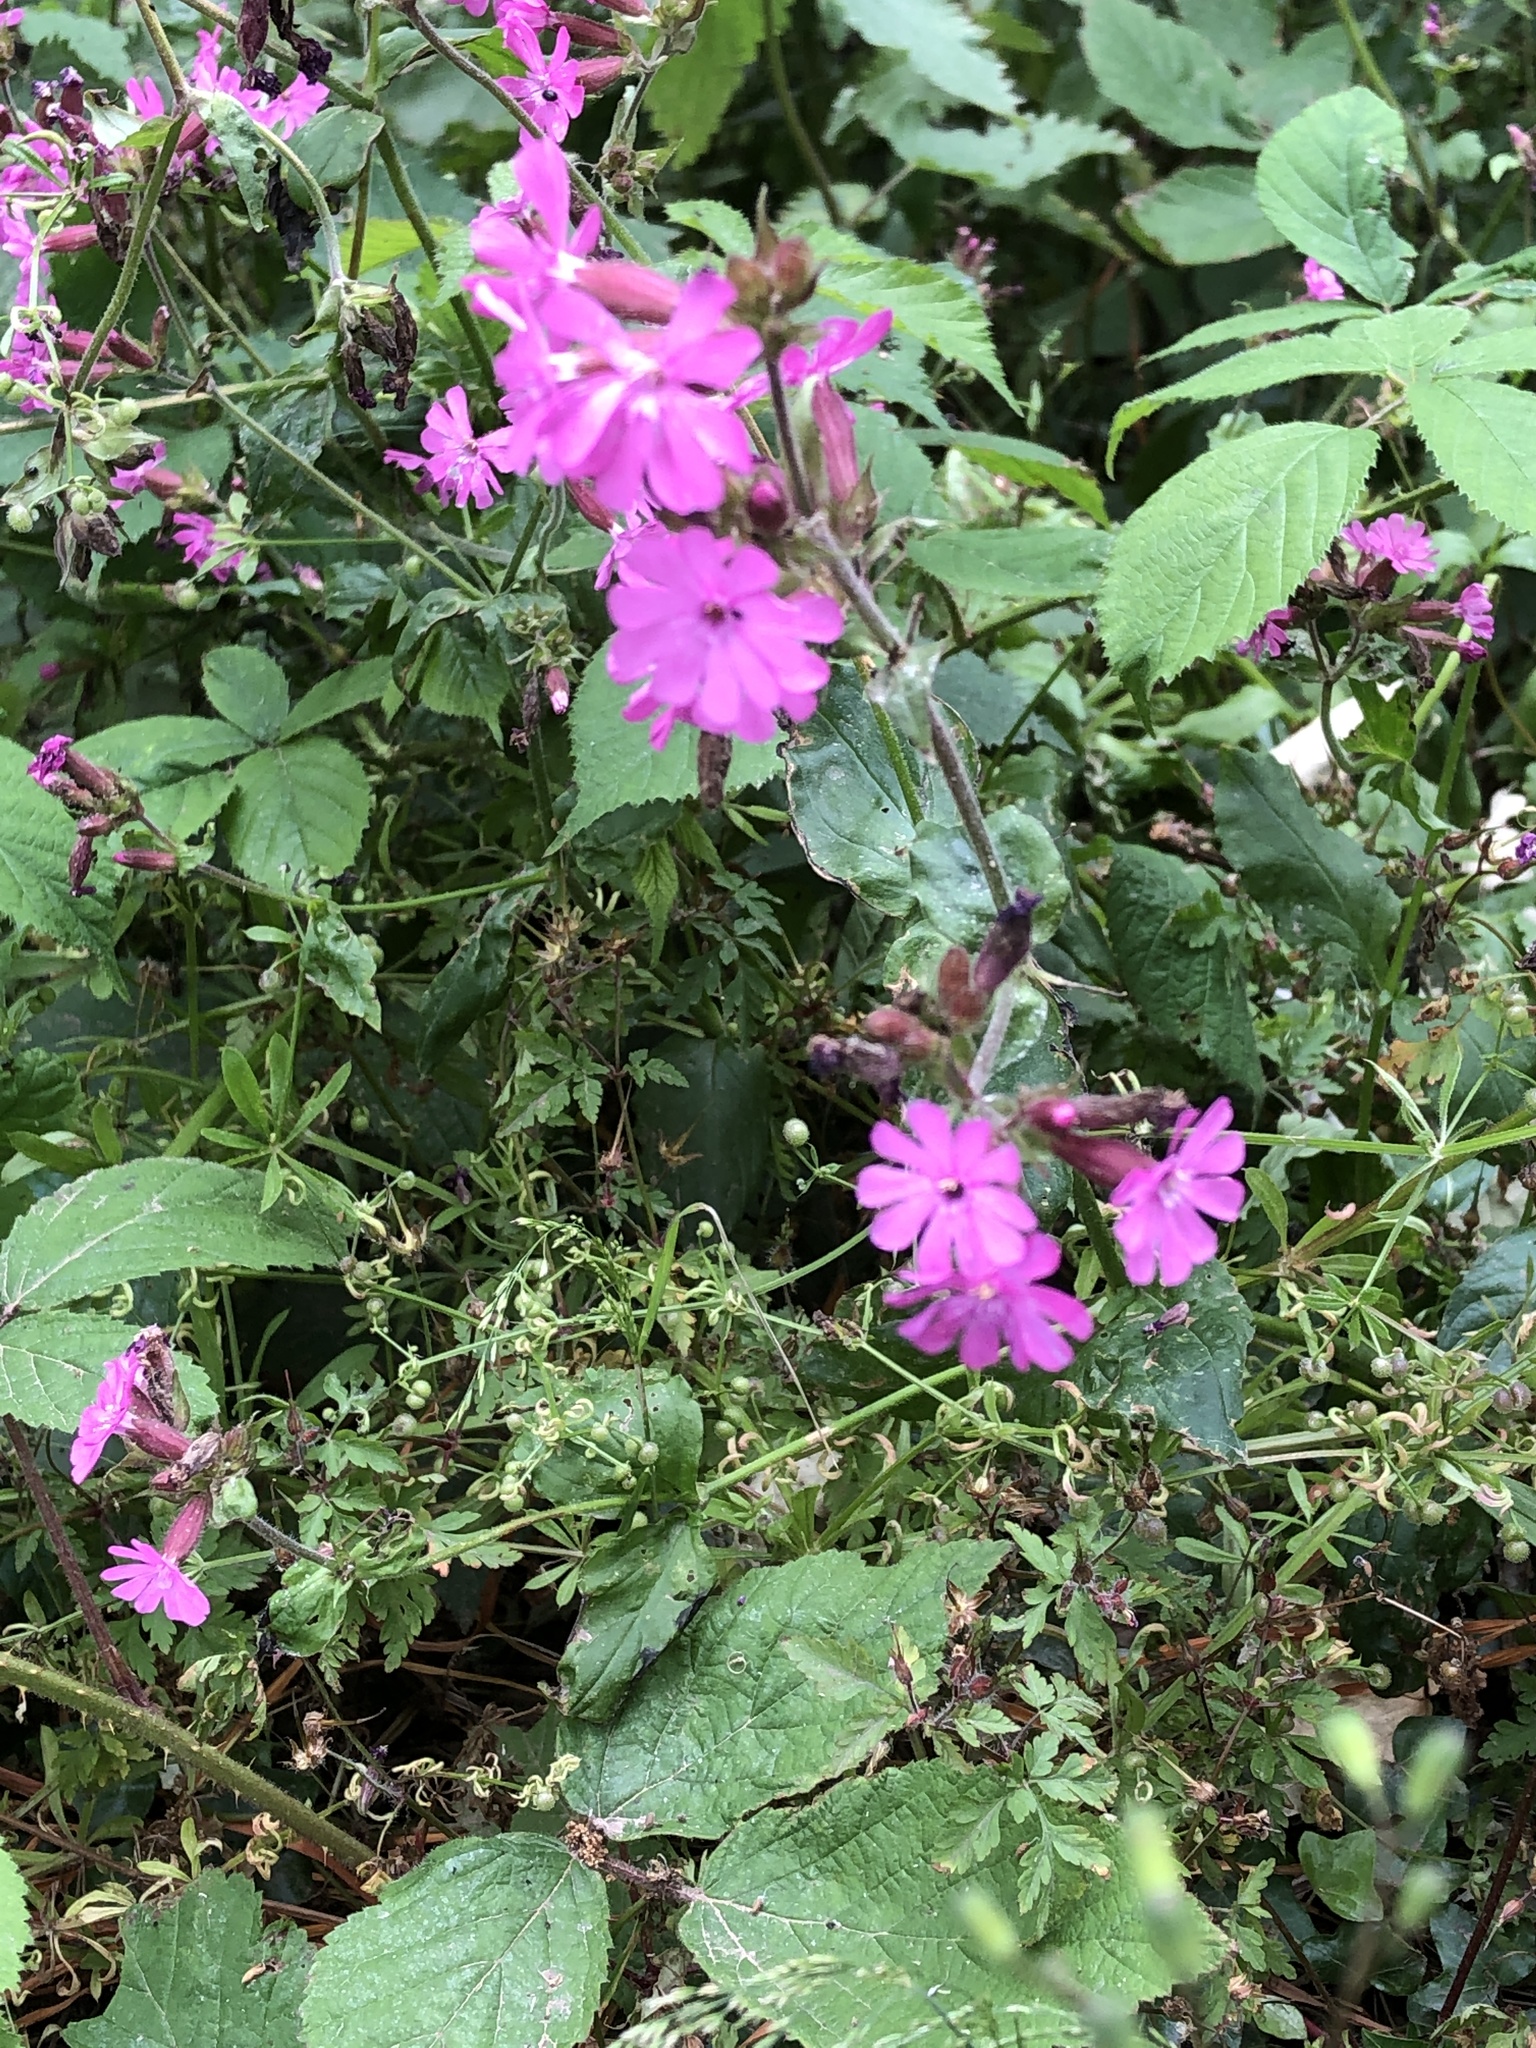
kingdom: Plantae
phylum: Tracheophyta
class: Magnoliopsida
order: Caryophyllales
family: Caryophyllaceae
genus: Silene
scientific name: Silene dioica
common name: Red campion
